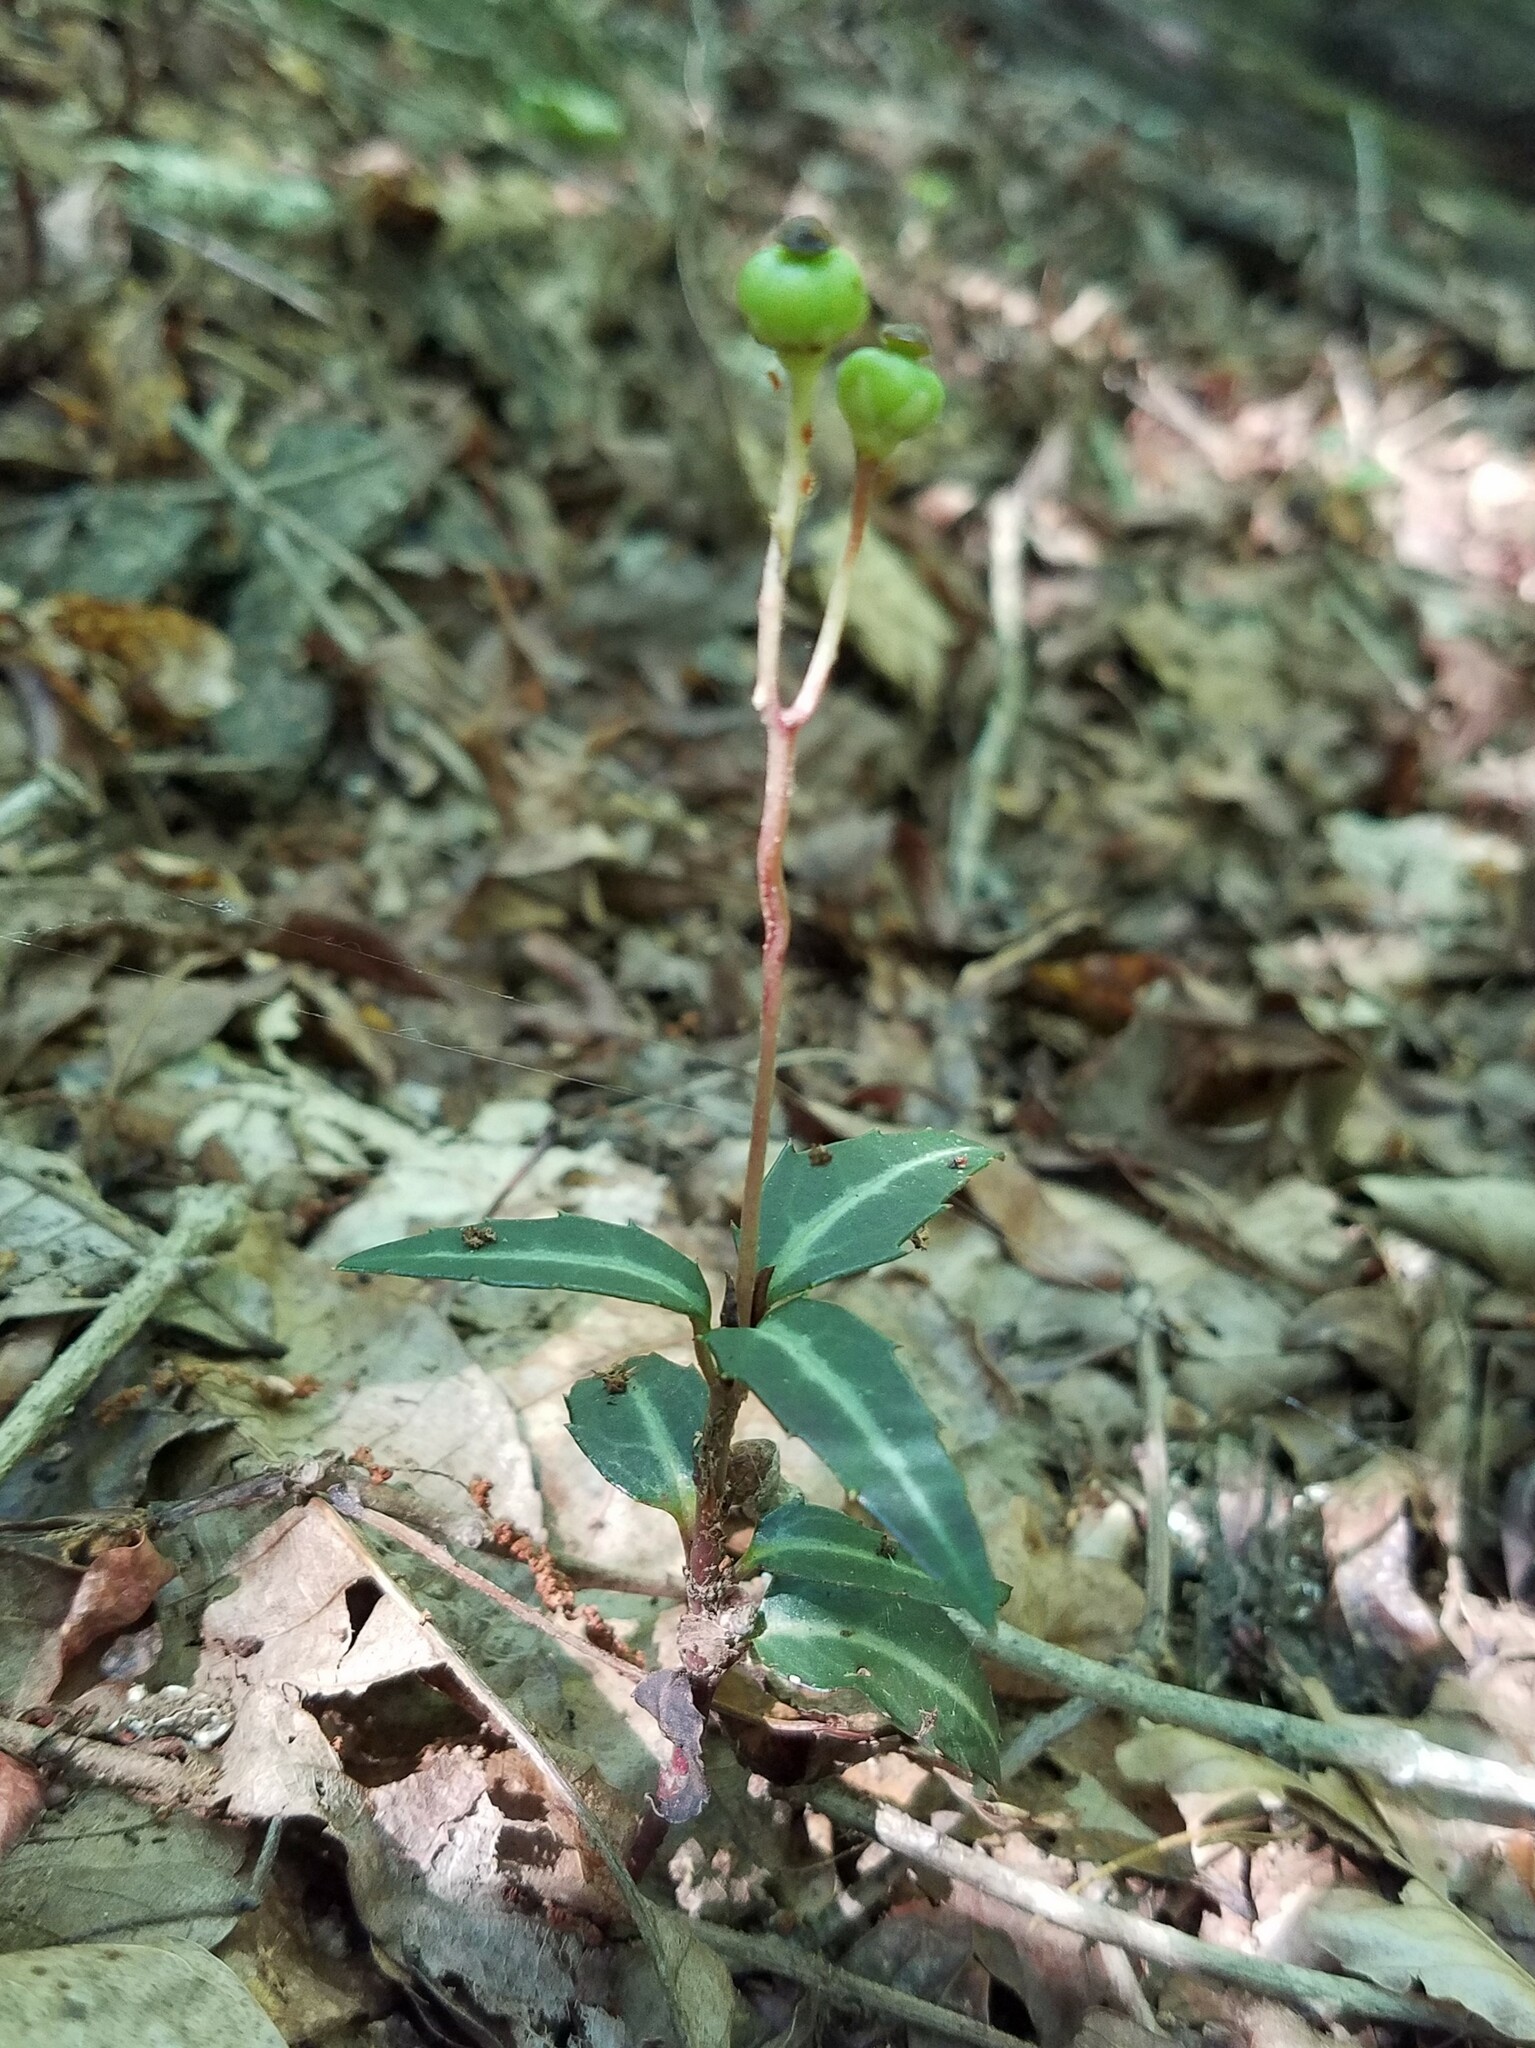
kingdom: Plantae
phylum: Tracheophyta
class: Magnoliopsida
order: Ericales
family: Ericaceae
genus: Chimaphila
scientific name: Chimaphila maculata
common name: Spotted pipsissewa
